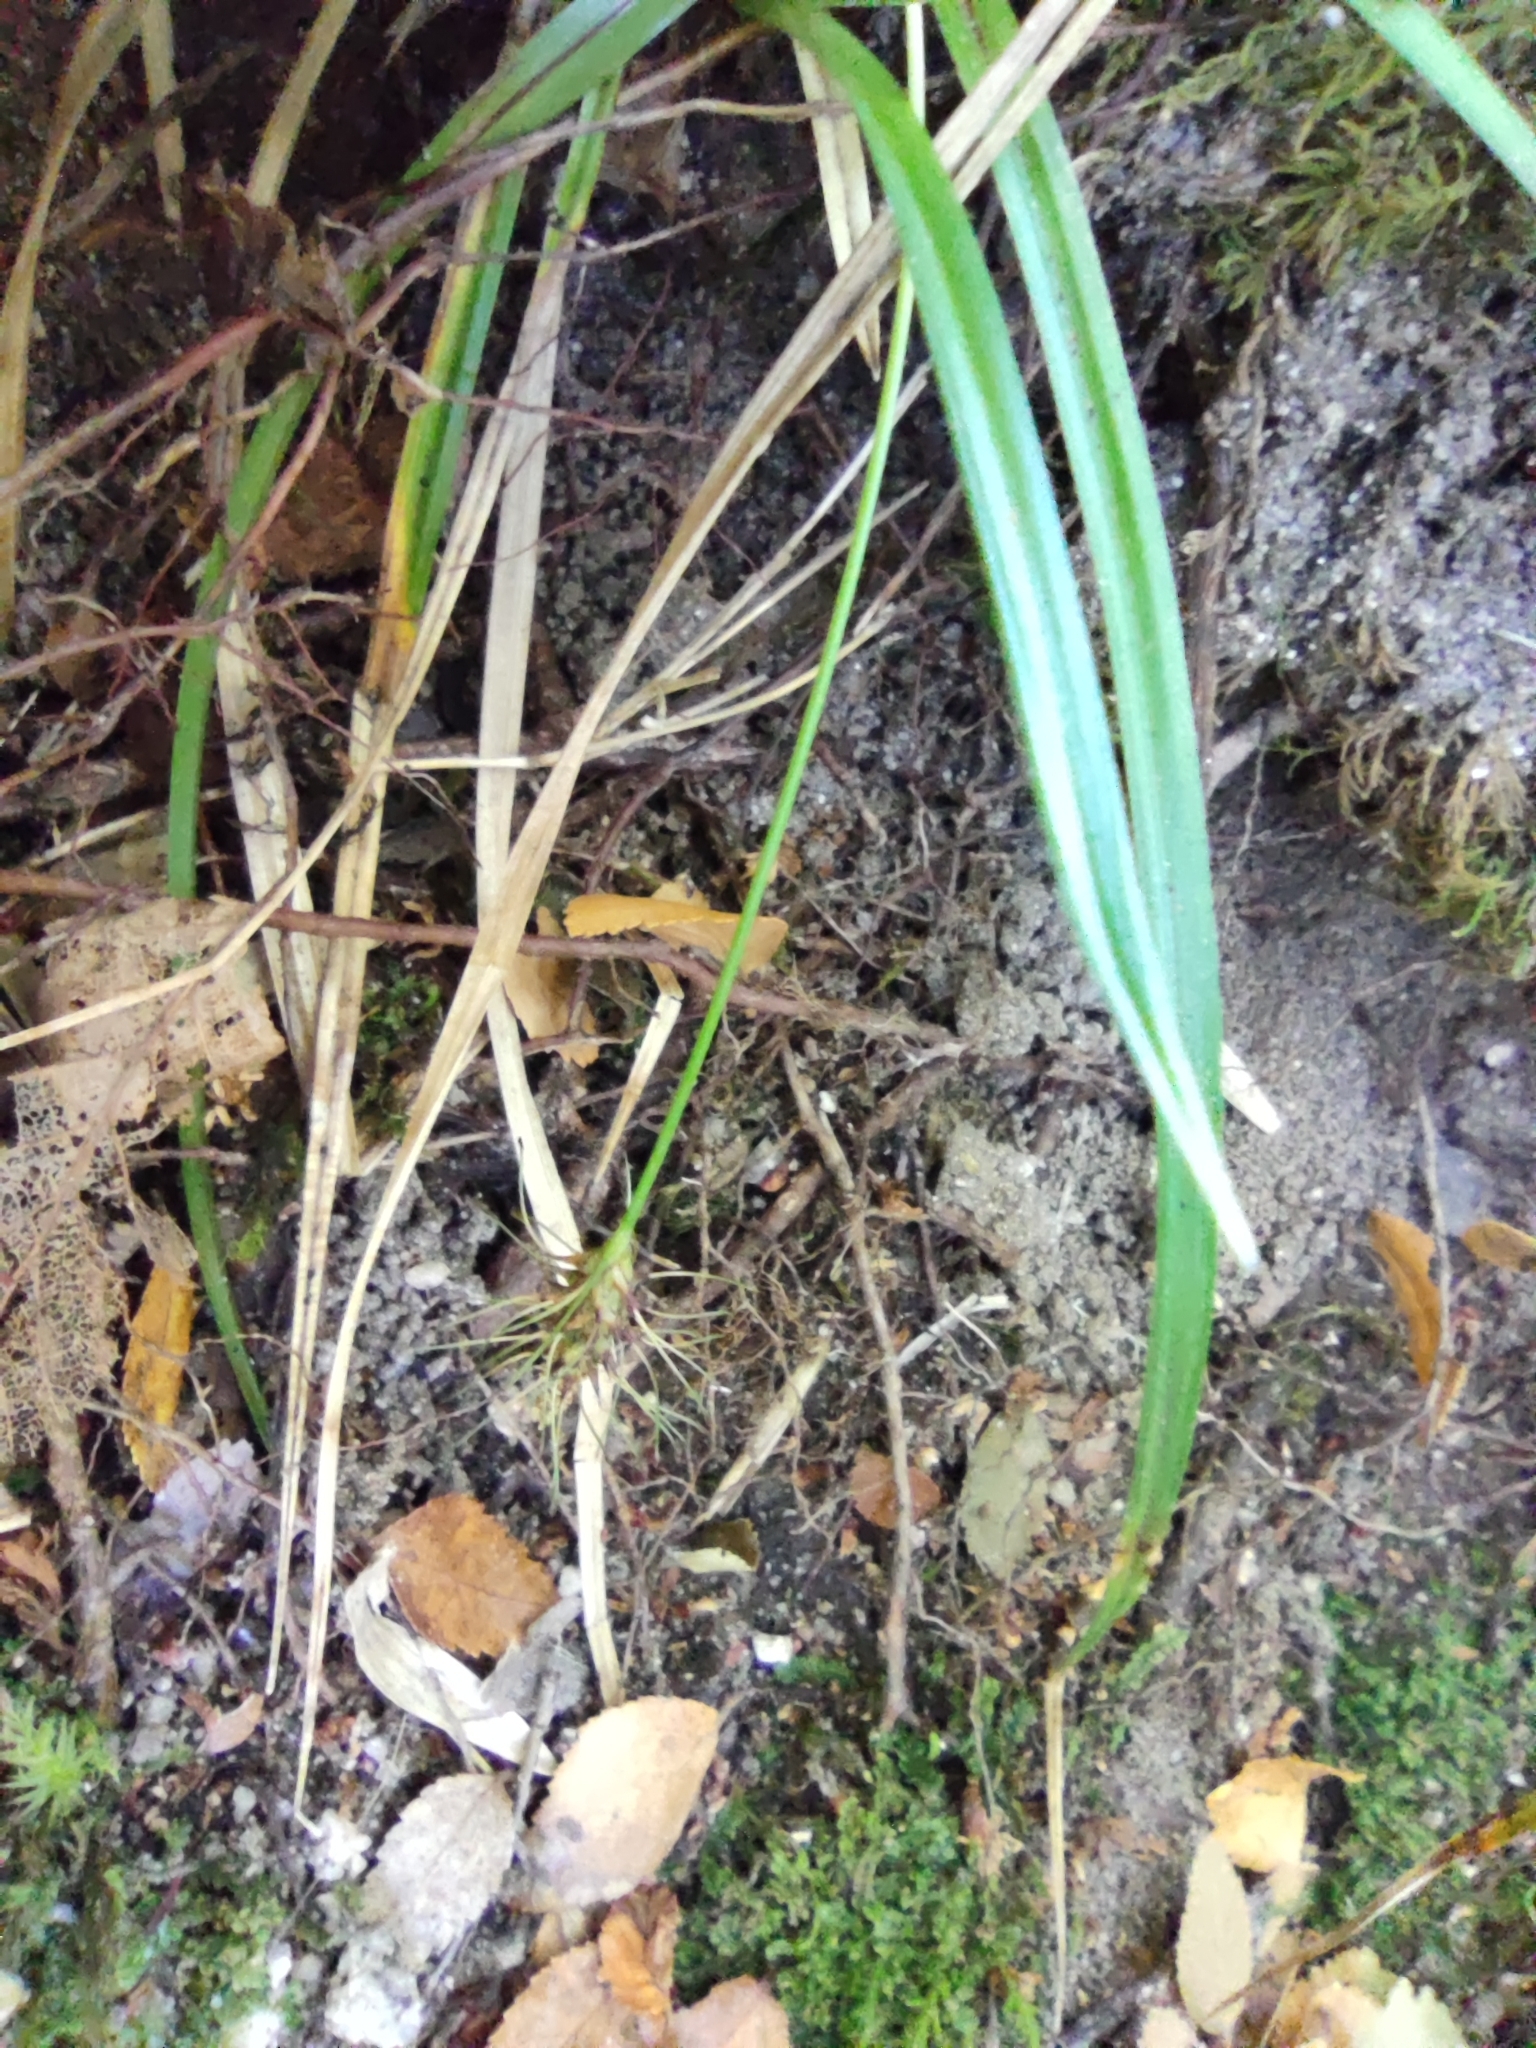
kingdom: Plantae
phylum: Tracheophyta
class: Liliopsida
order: Poales
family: Cyperaceae
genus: Carex
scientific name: Carex erinacea
